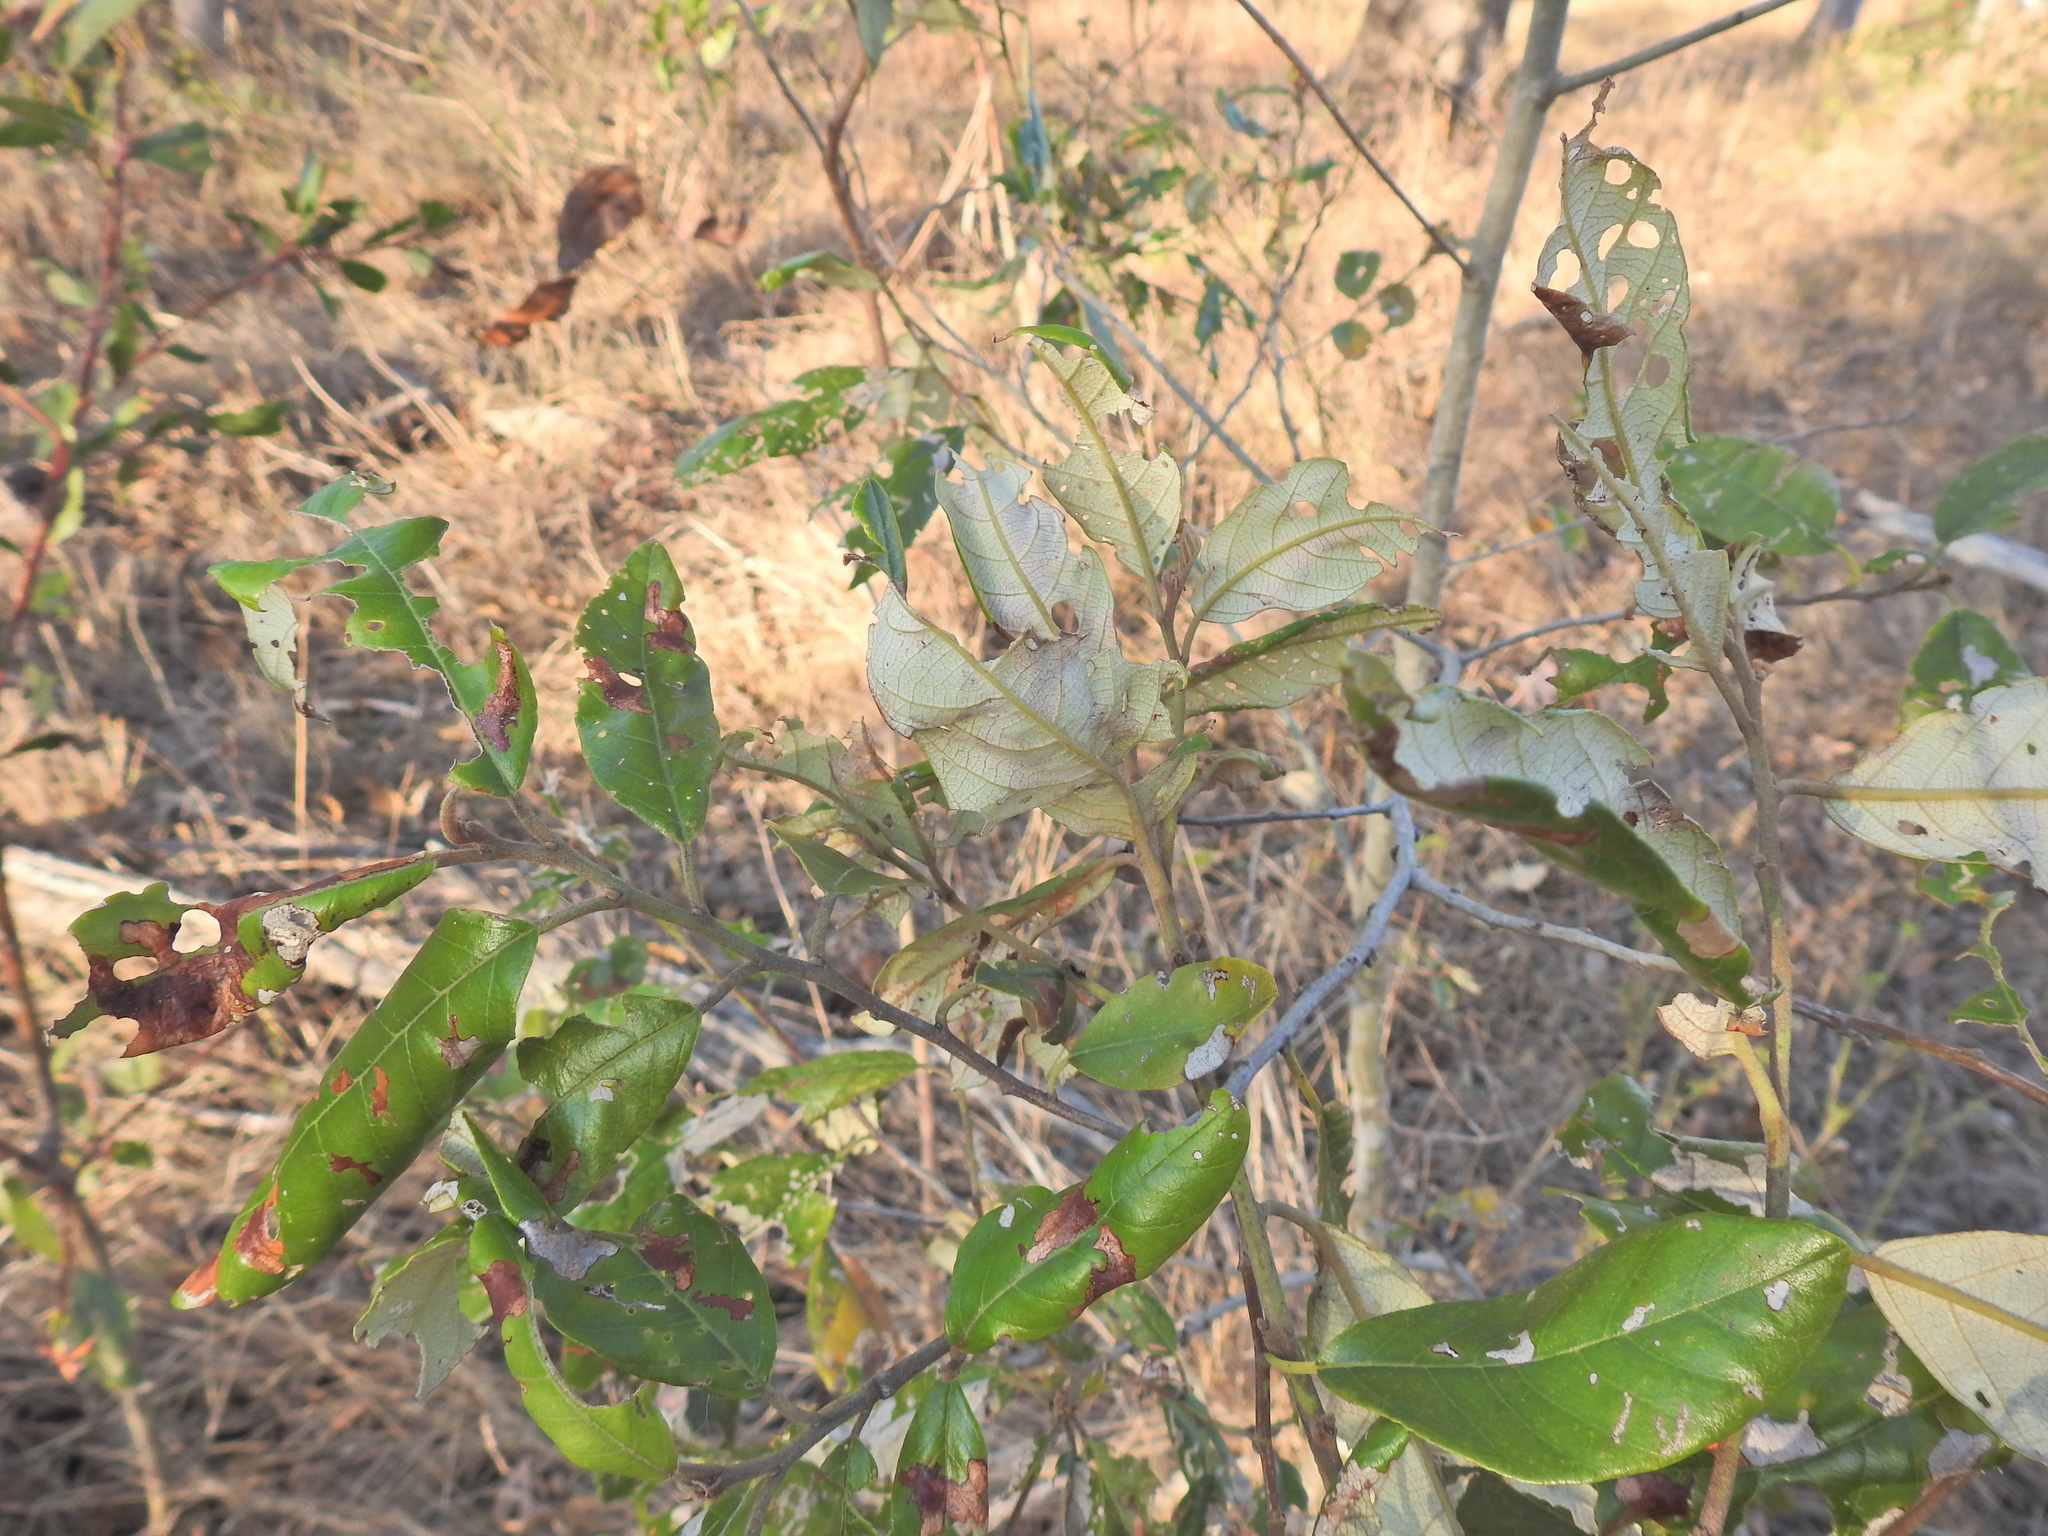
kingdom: Plantae
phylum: Tracheophyta
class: Magnoliopsida
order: Rosales
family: Rhamnaceae
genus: Alphitonia
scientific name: Alphitonia excelsa
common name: Red ash
